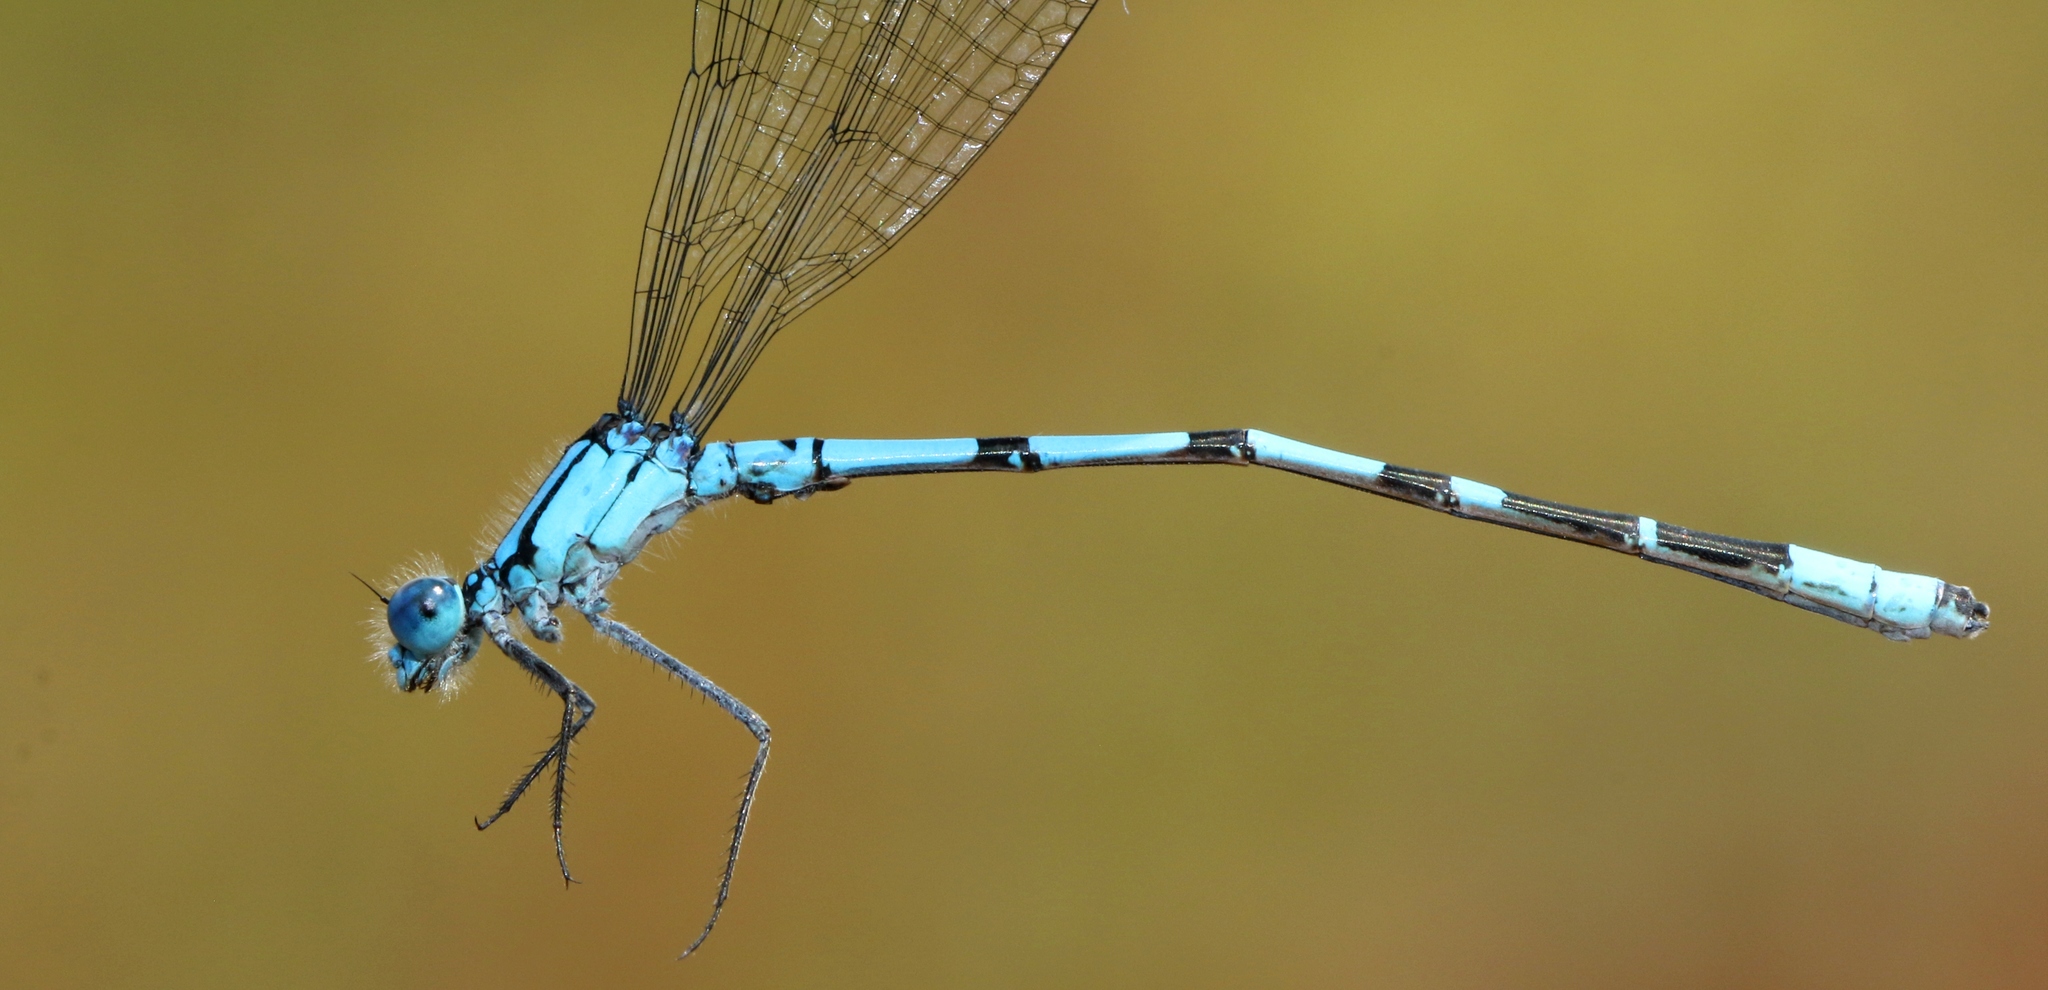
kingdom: Animalia
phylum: Arthropoda
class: Insecta
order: Odonata
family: Coenagrionidae
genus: Enallagma
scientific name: Enallagma boreale
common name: Boreal bluet
